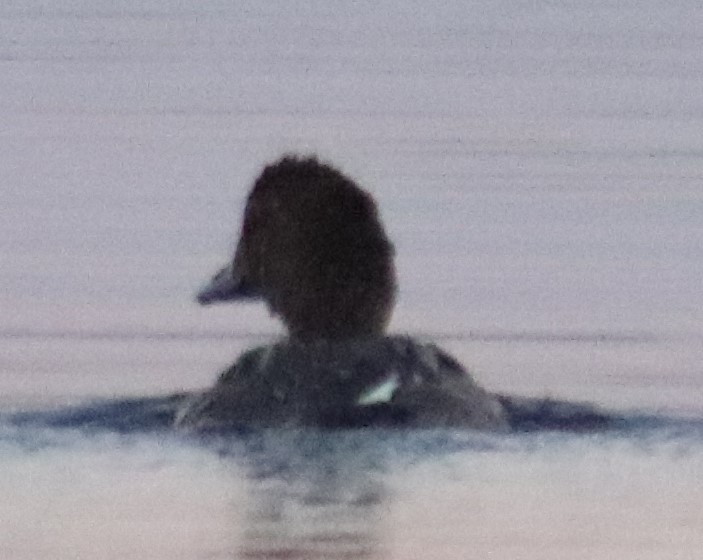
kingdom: Animalia
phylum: Chordata
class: Aves
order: Anseriformes
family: Anatidae
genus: Bucephala
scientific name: Bucephala clangula
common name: Common goldeneye
